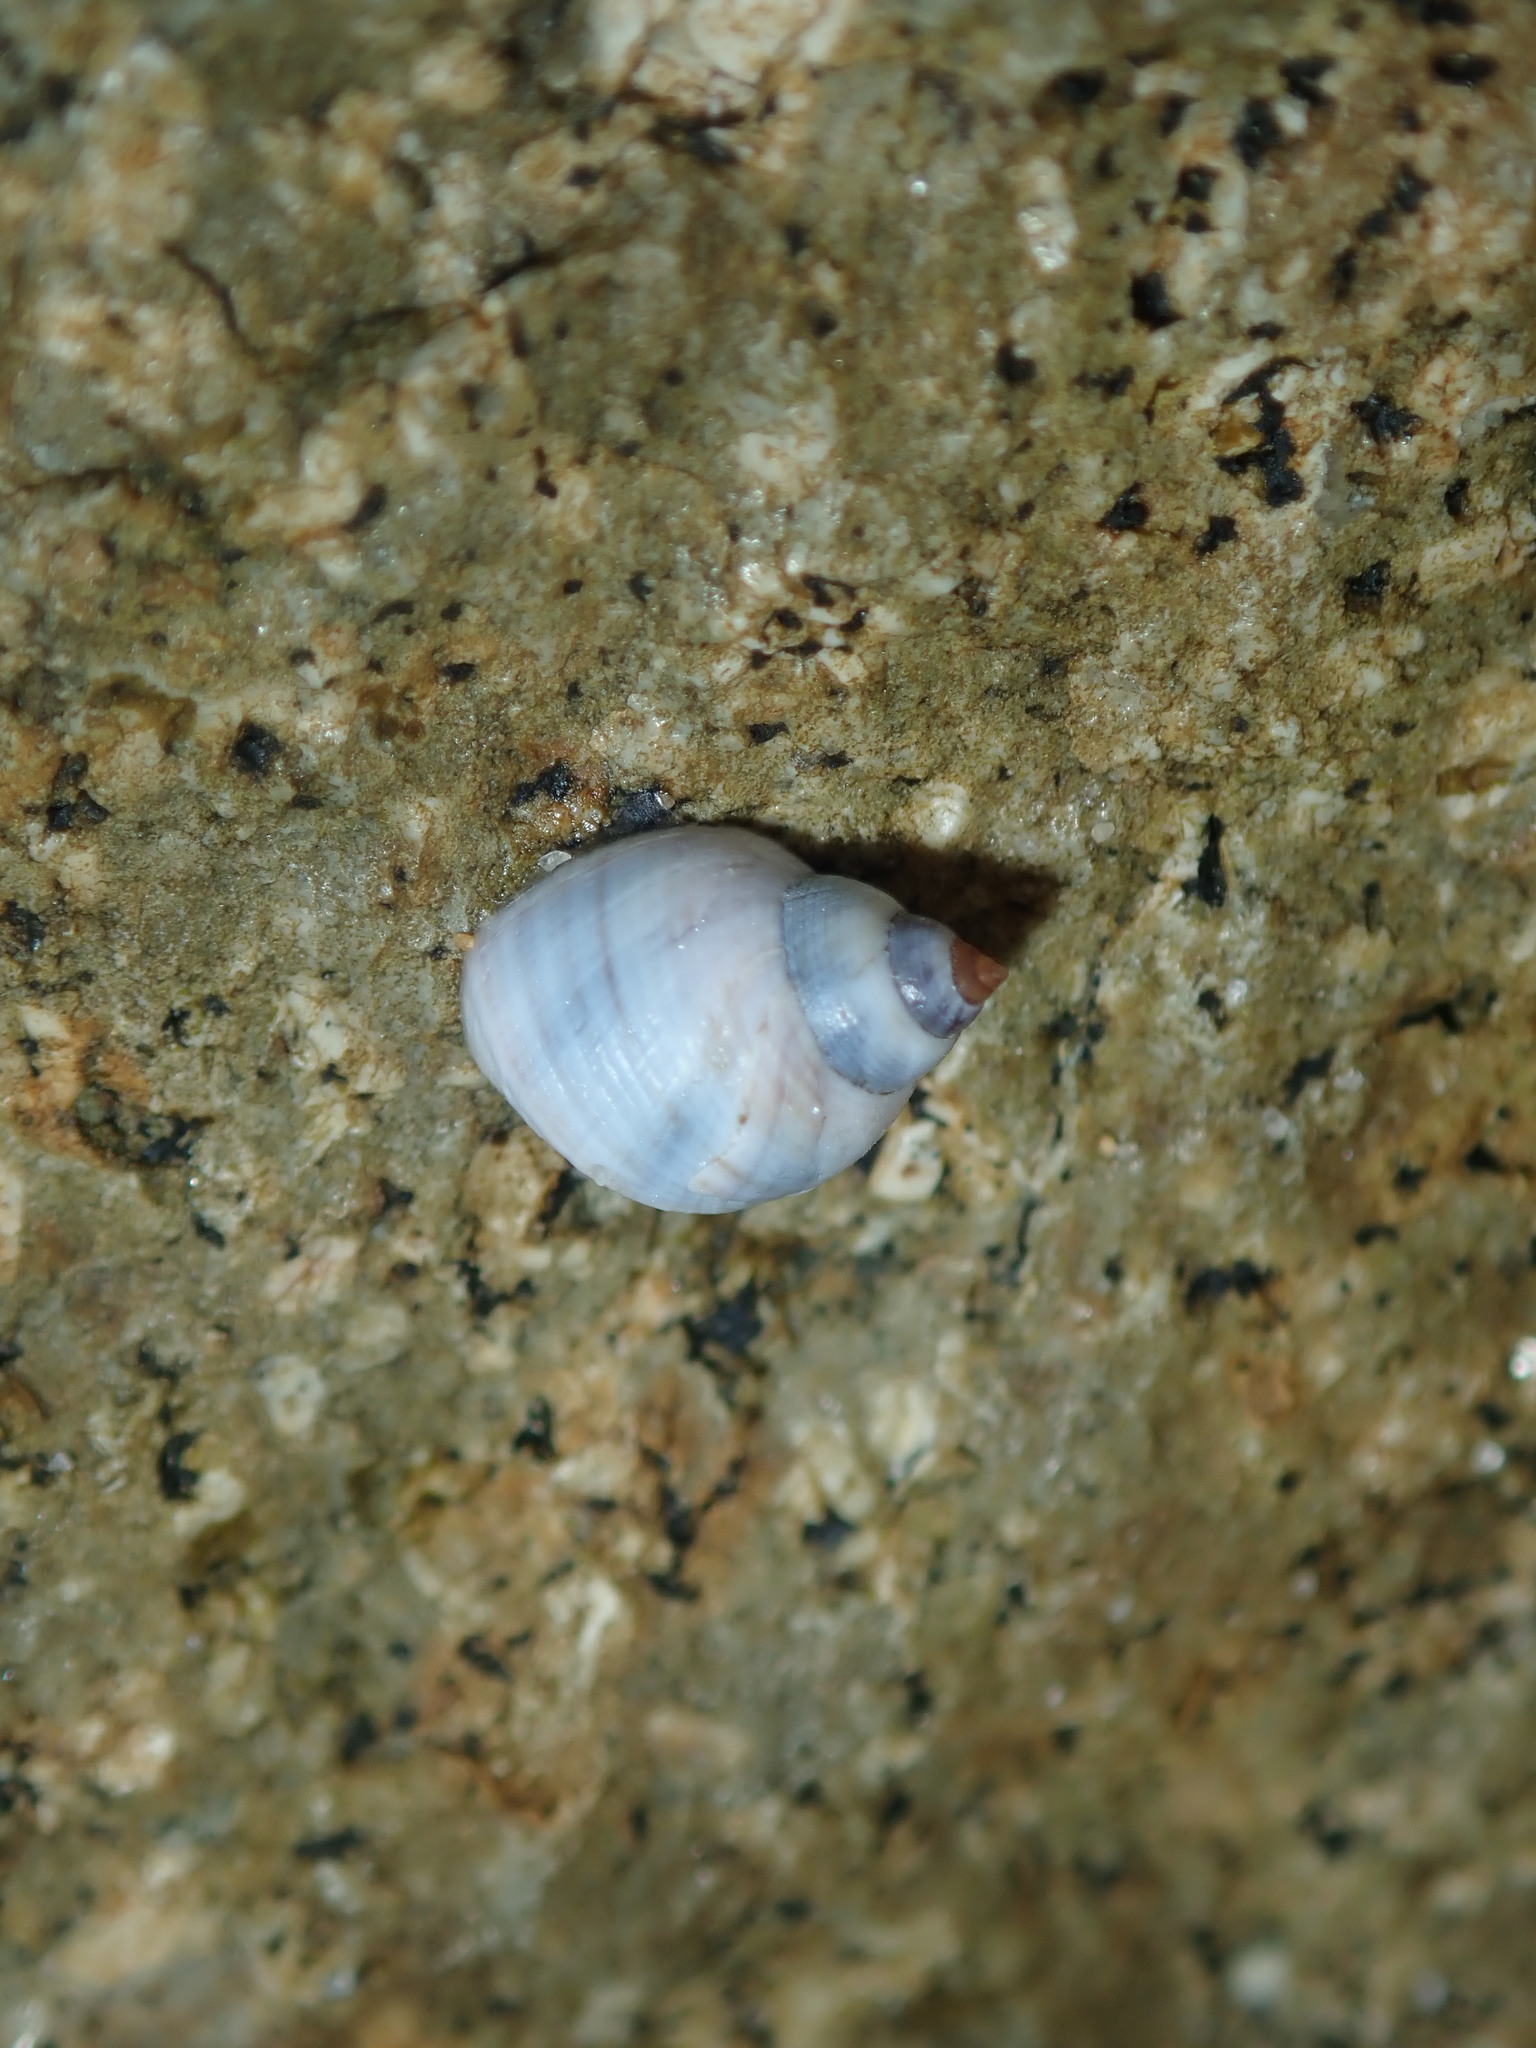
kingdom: Animalia
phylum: Mollusca
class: Gastropoda
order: Littorinimorpha
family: Littorinidae
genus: Austrolittorina
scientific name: Austrolittorina unifasciata
